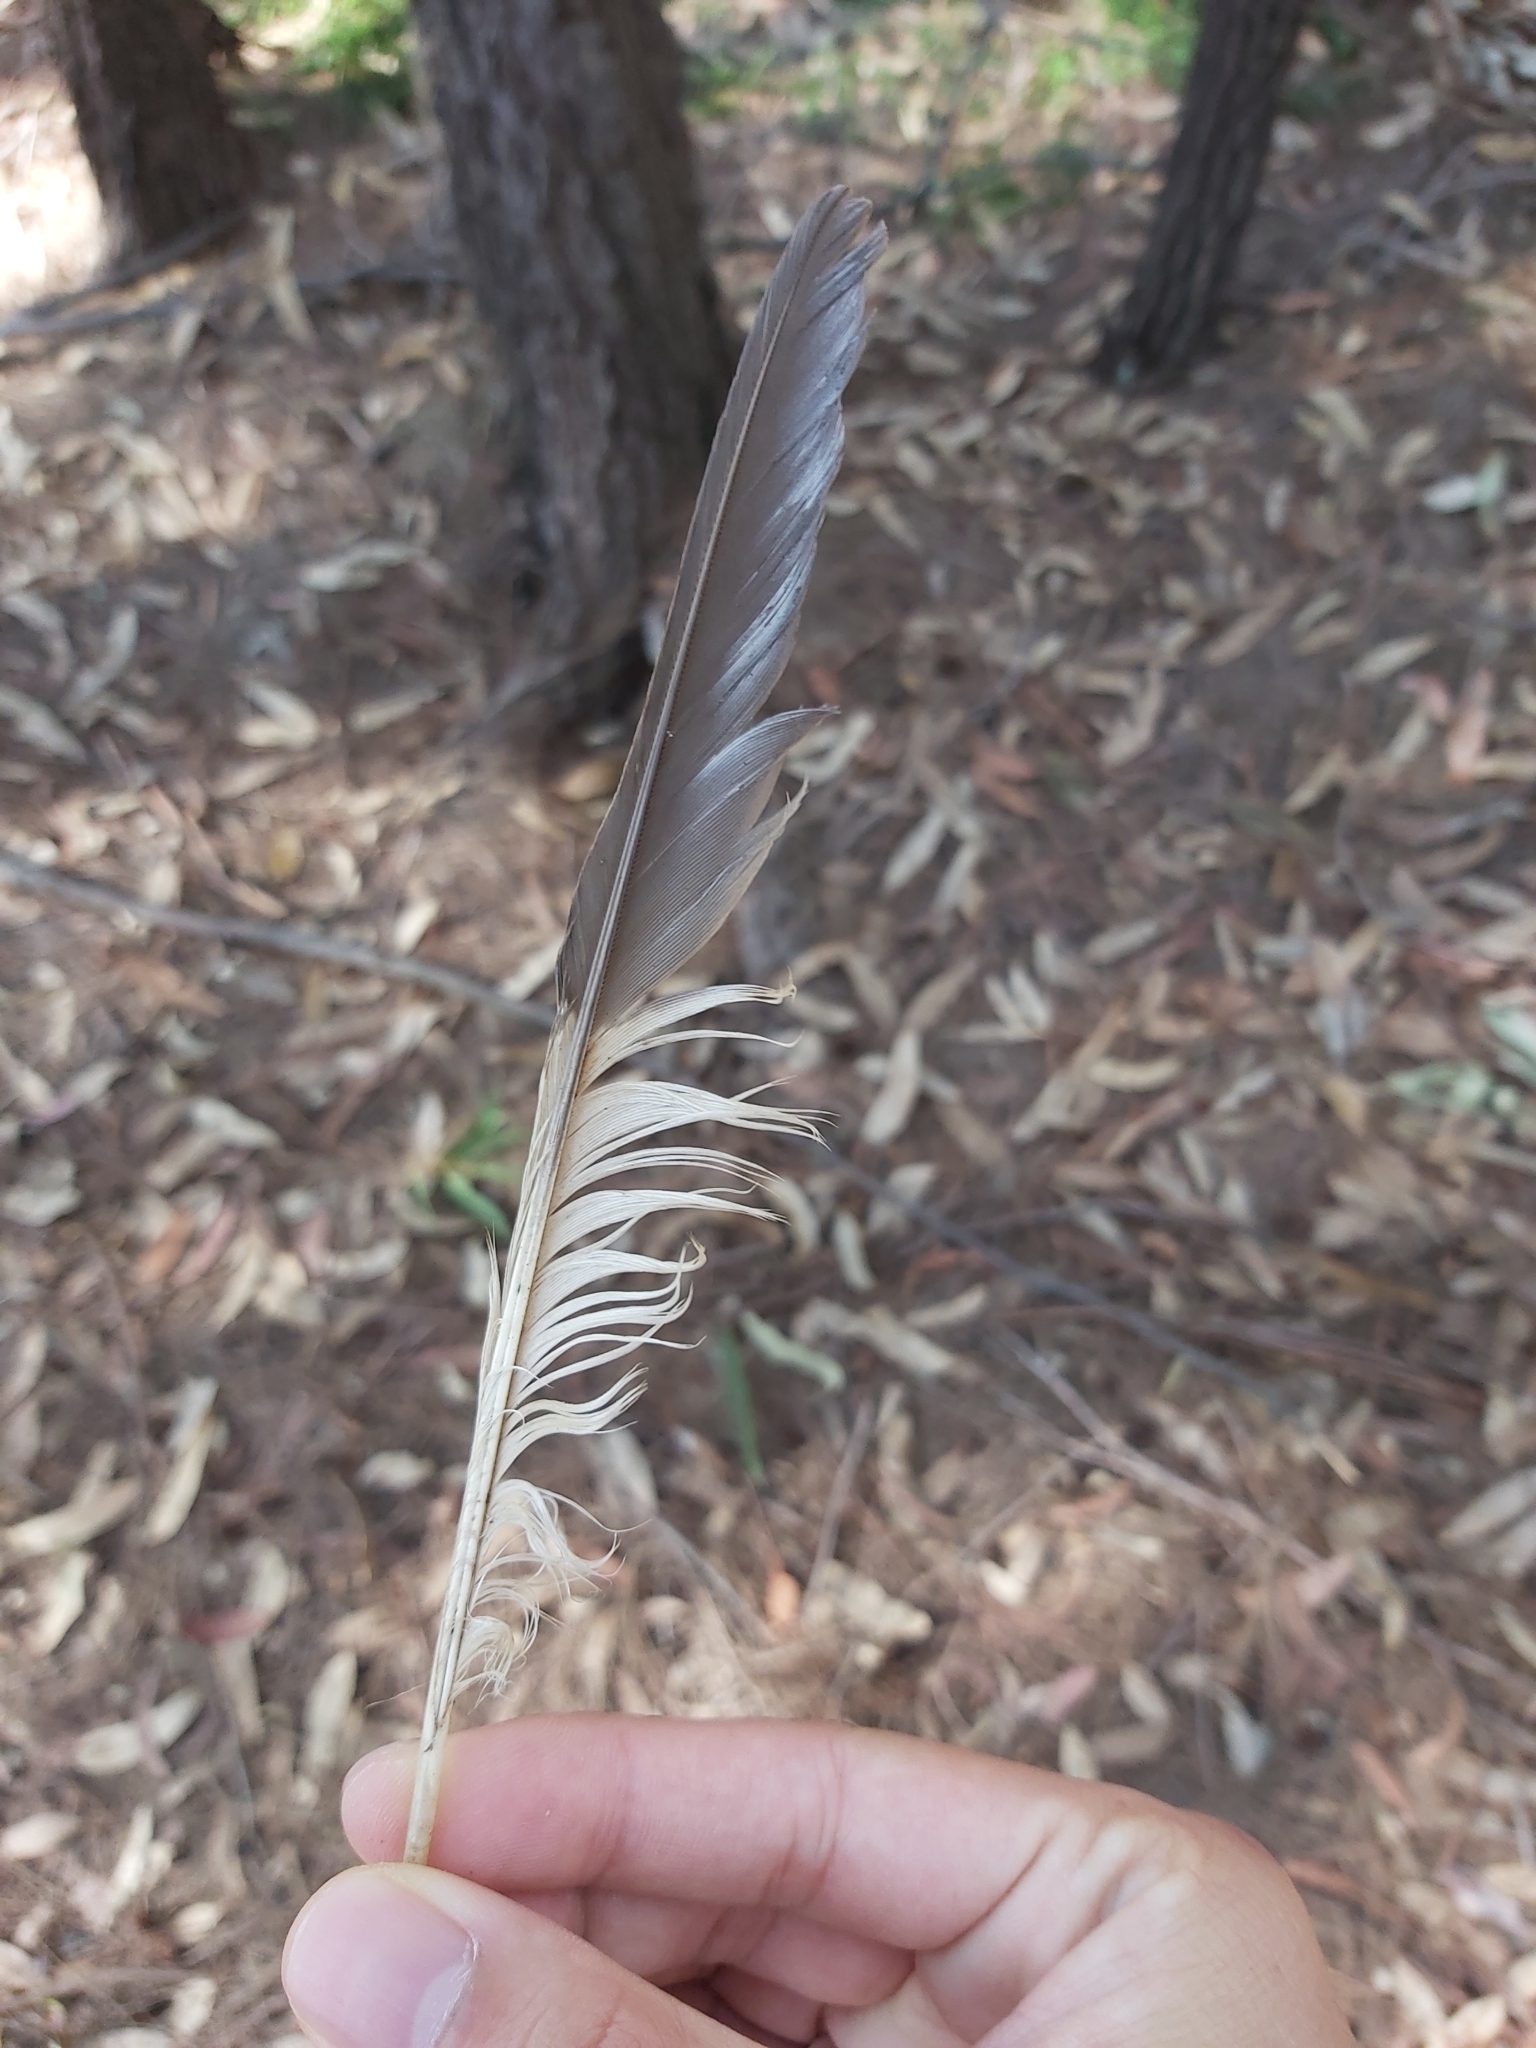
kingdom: Animalia
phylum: Chordata
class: Aves
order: Coraciiformes
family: Alcedinidae
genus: Dacelo
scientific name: Dacelo novaeguineae
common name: Laughing kookaburra
